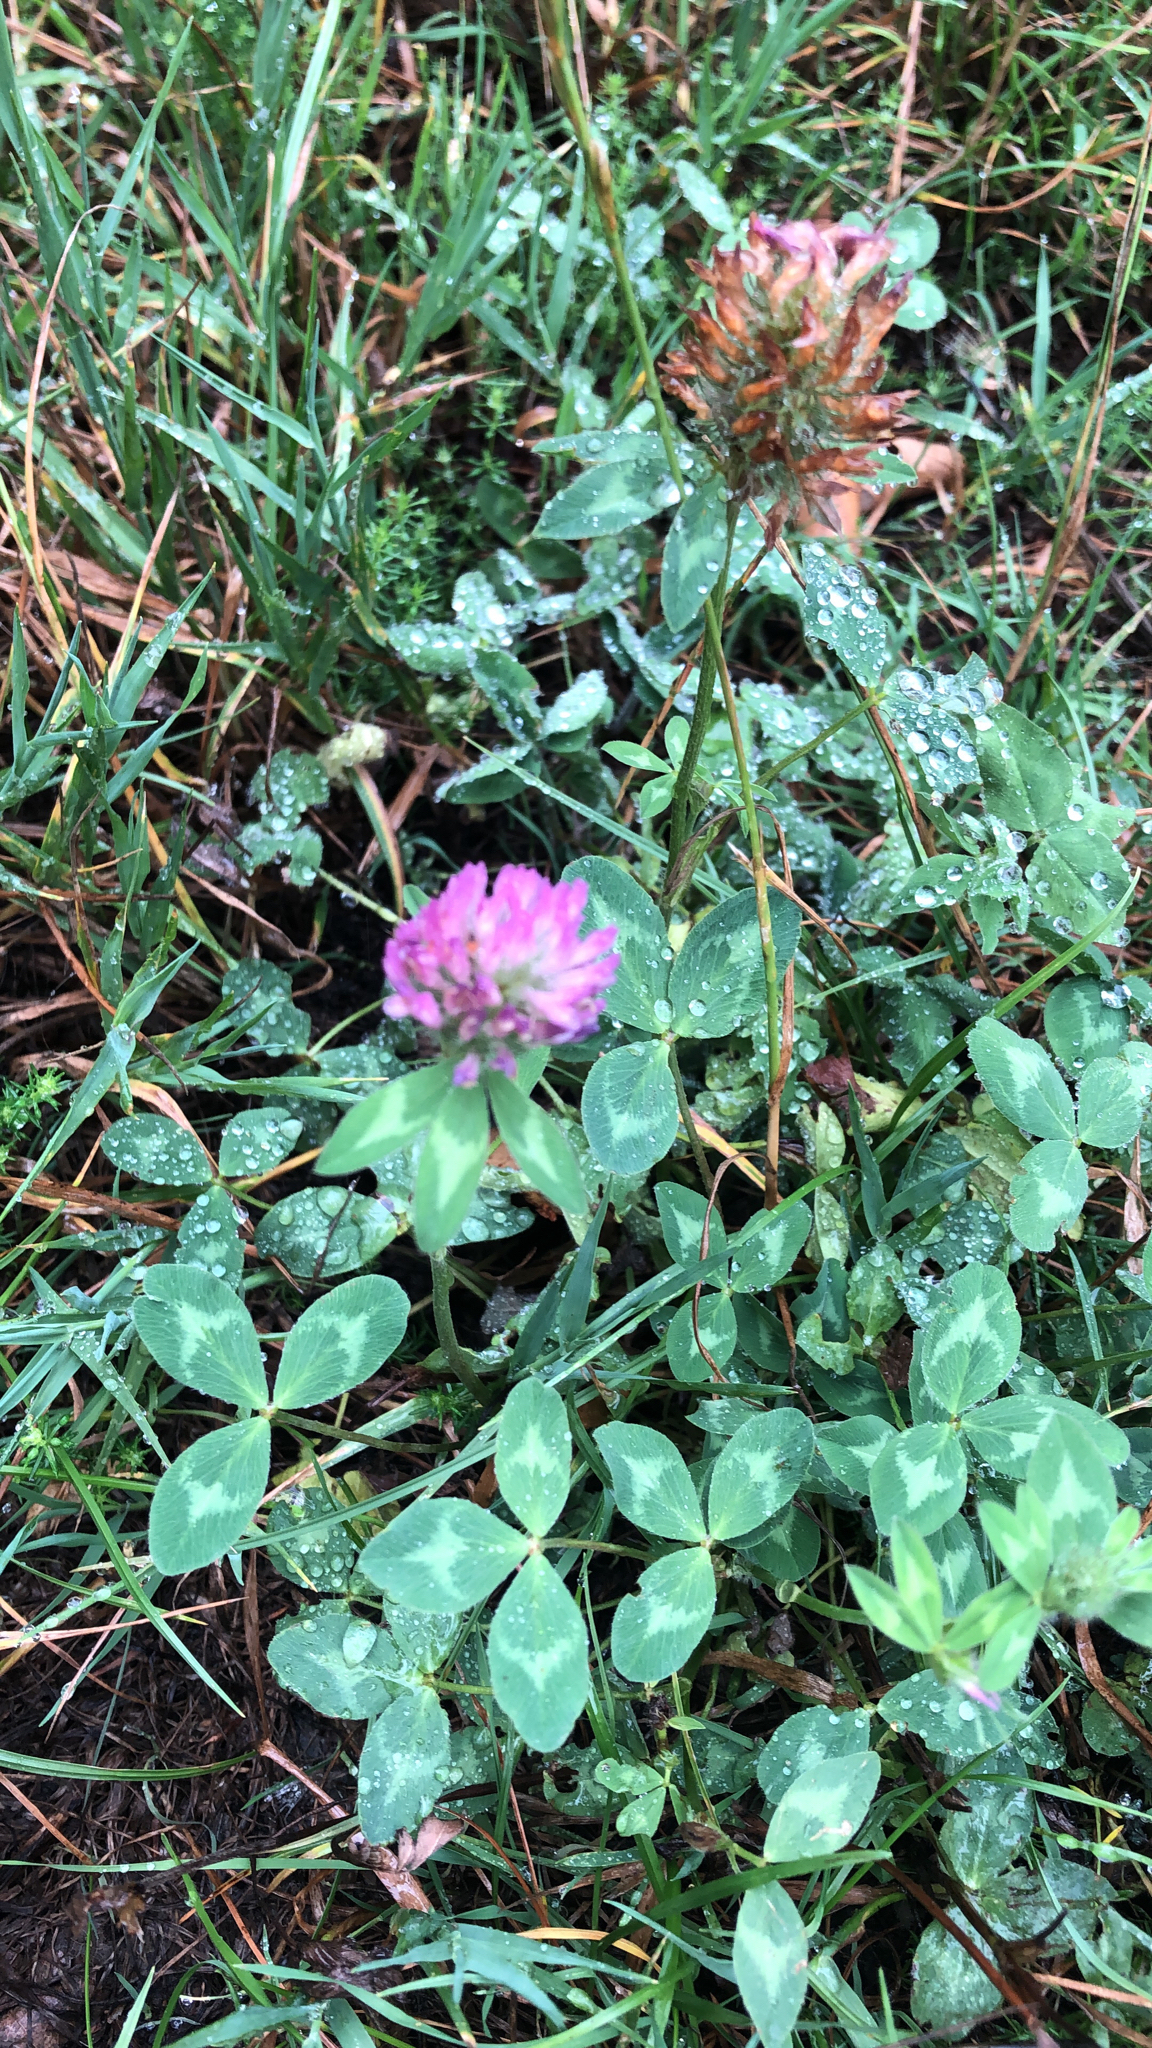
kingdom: Plantae
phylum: Tracheophyta
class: Magnoliopsida
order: Fabales
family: Fabaceae
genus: Trifolium
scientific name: Trifolium pratense
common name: Red clover
